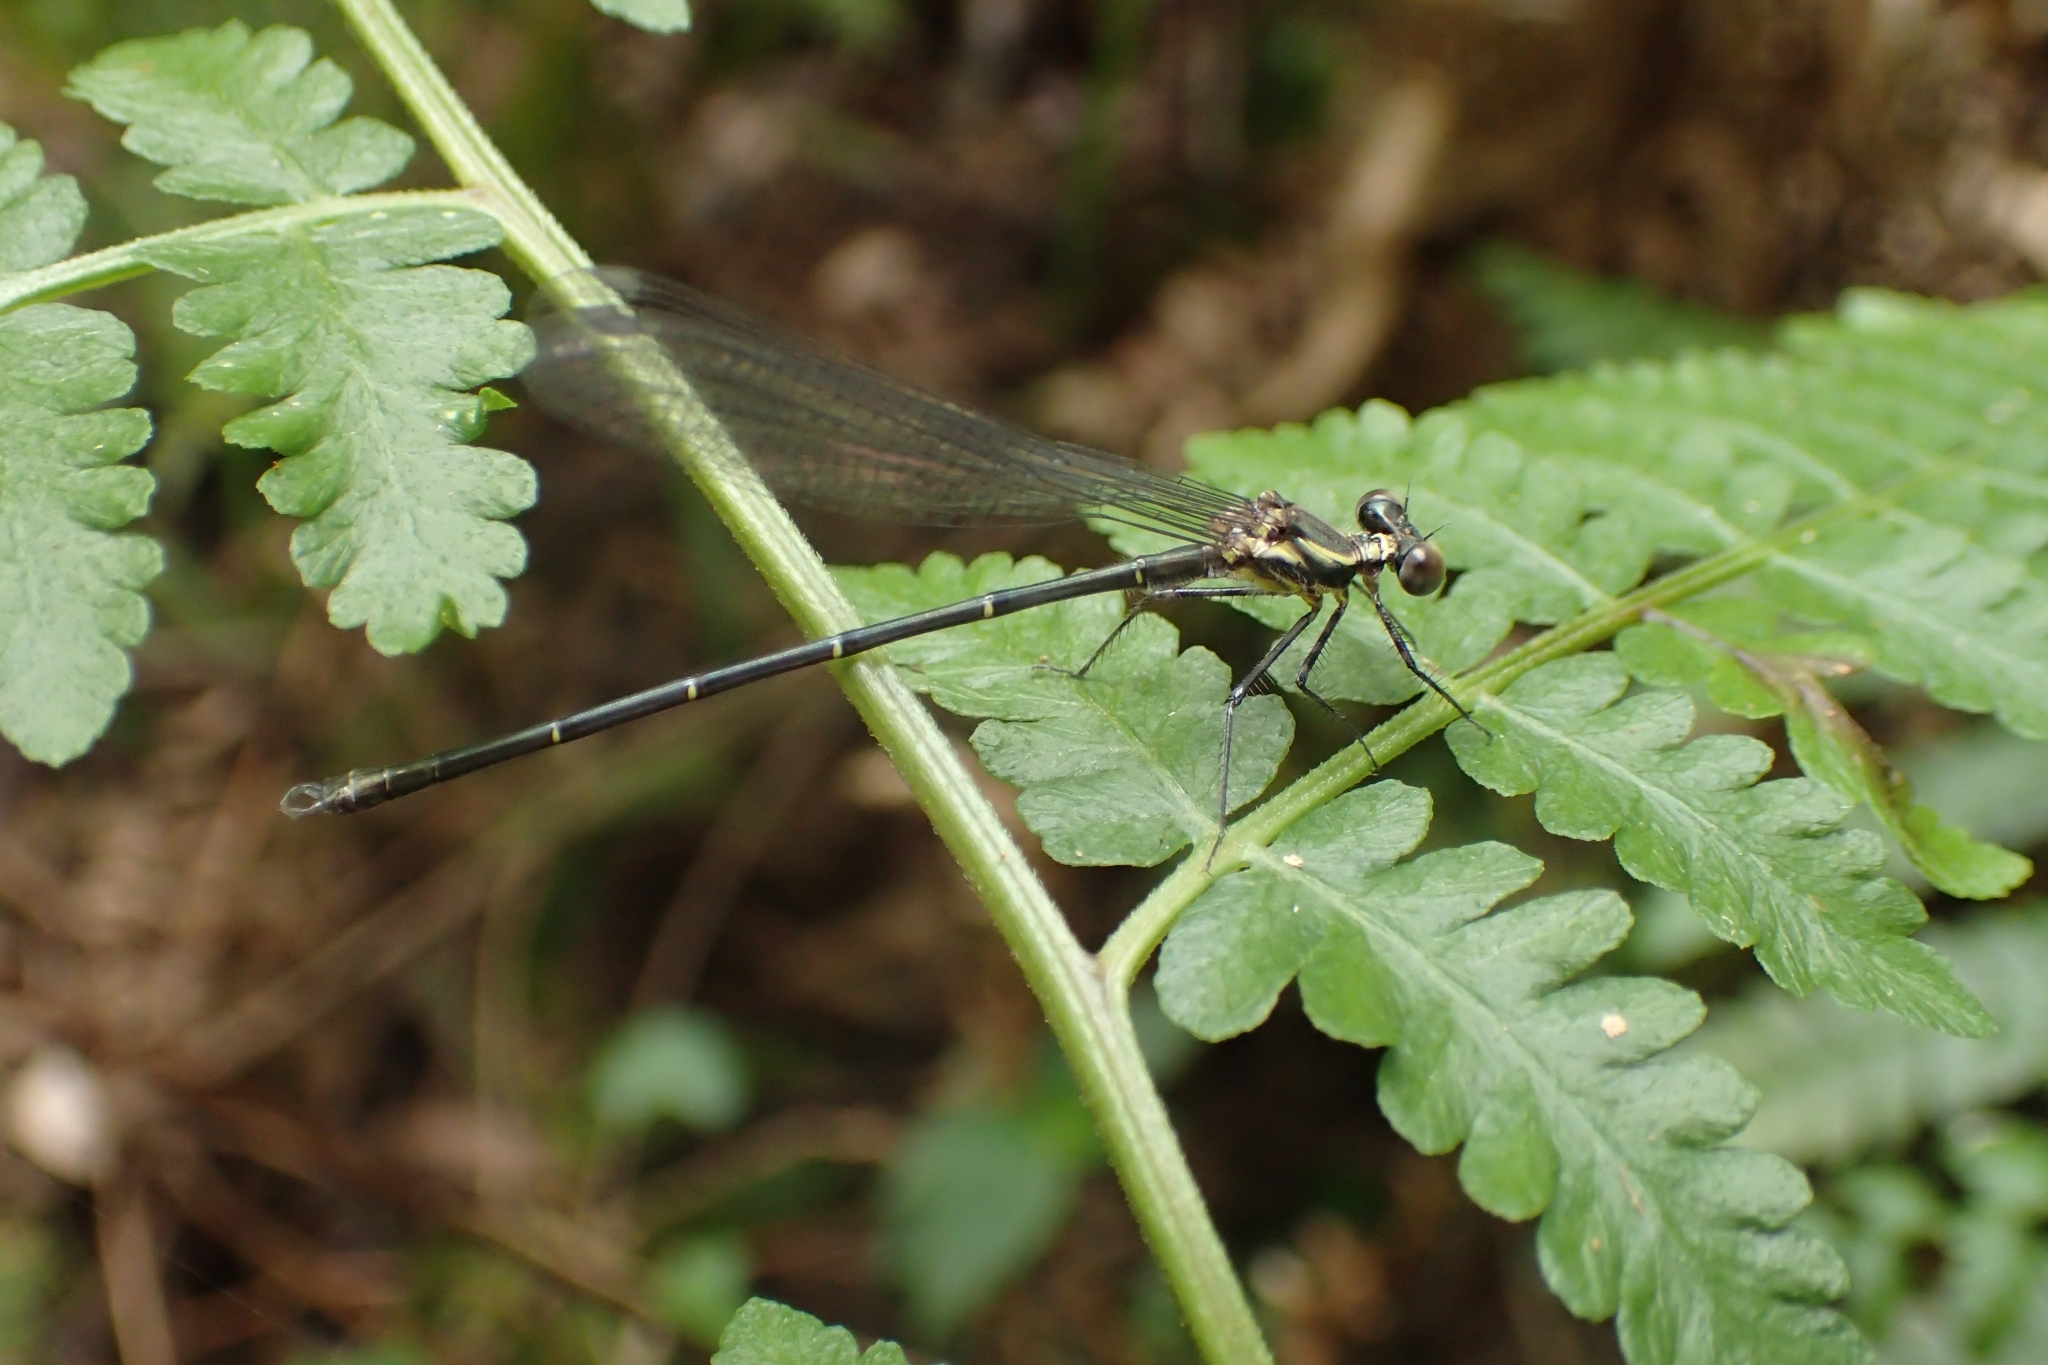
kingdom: Animalia
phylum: Arthropoda
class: Insecta
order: Odonata
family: Argiolestidae
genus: Austroargiolestes
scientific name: Austroargiolestes icteromelas
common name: Common flatwing
